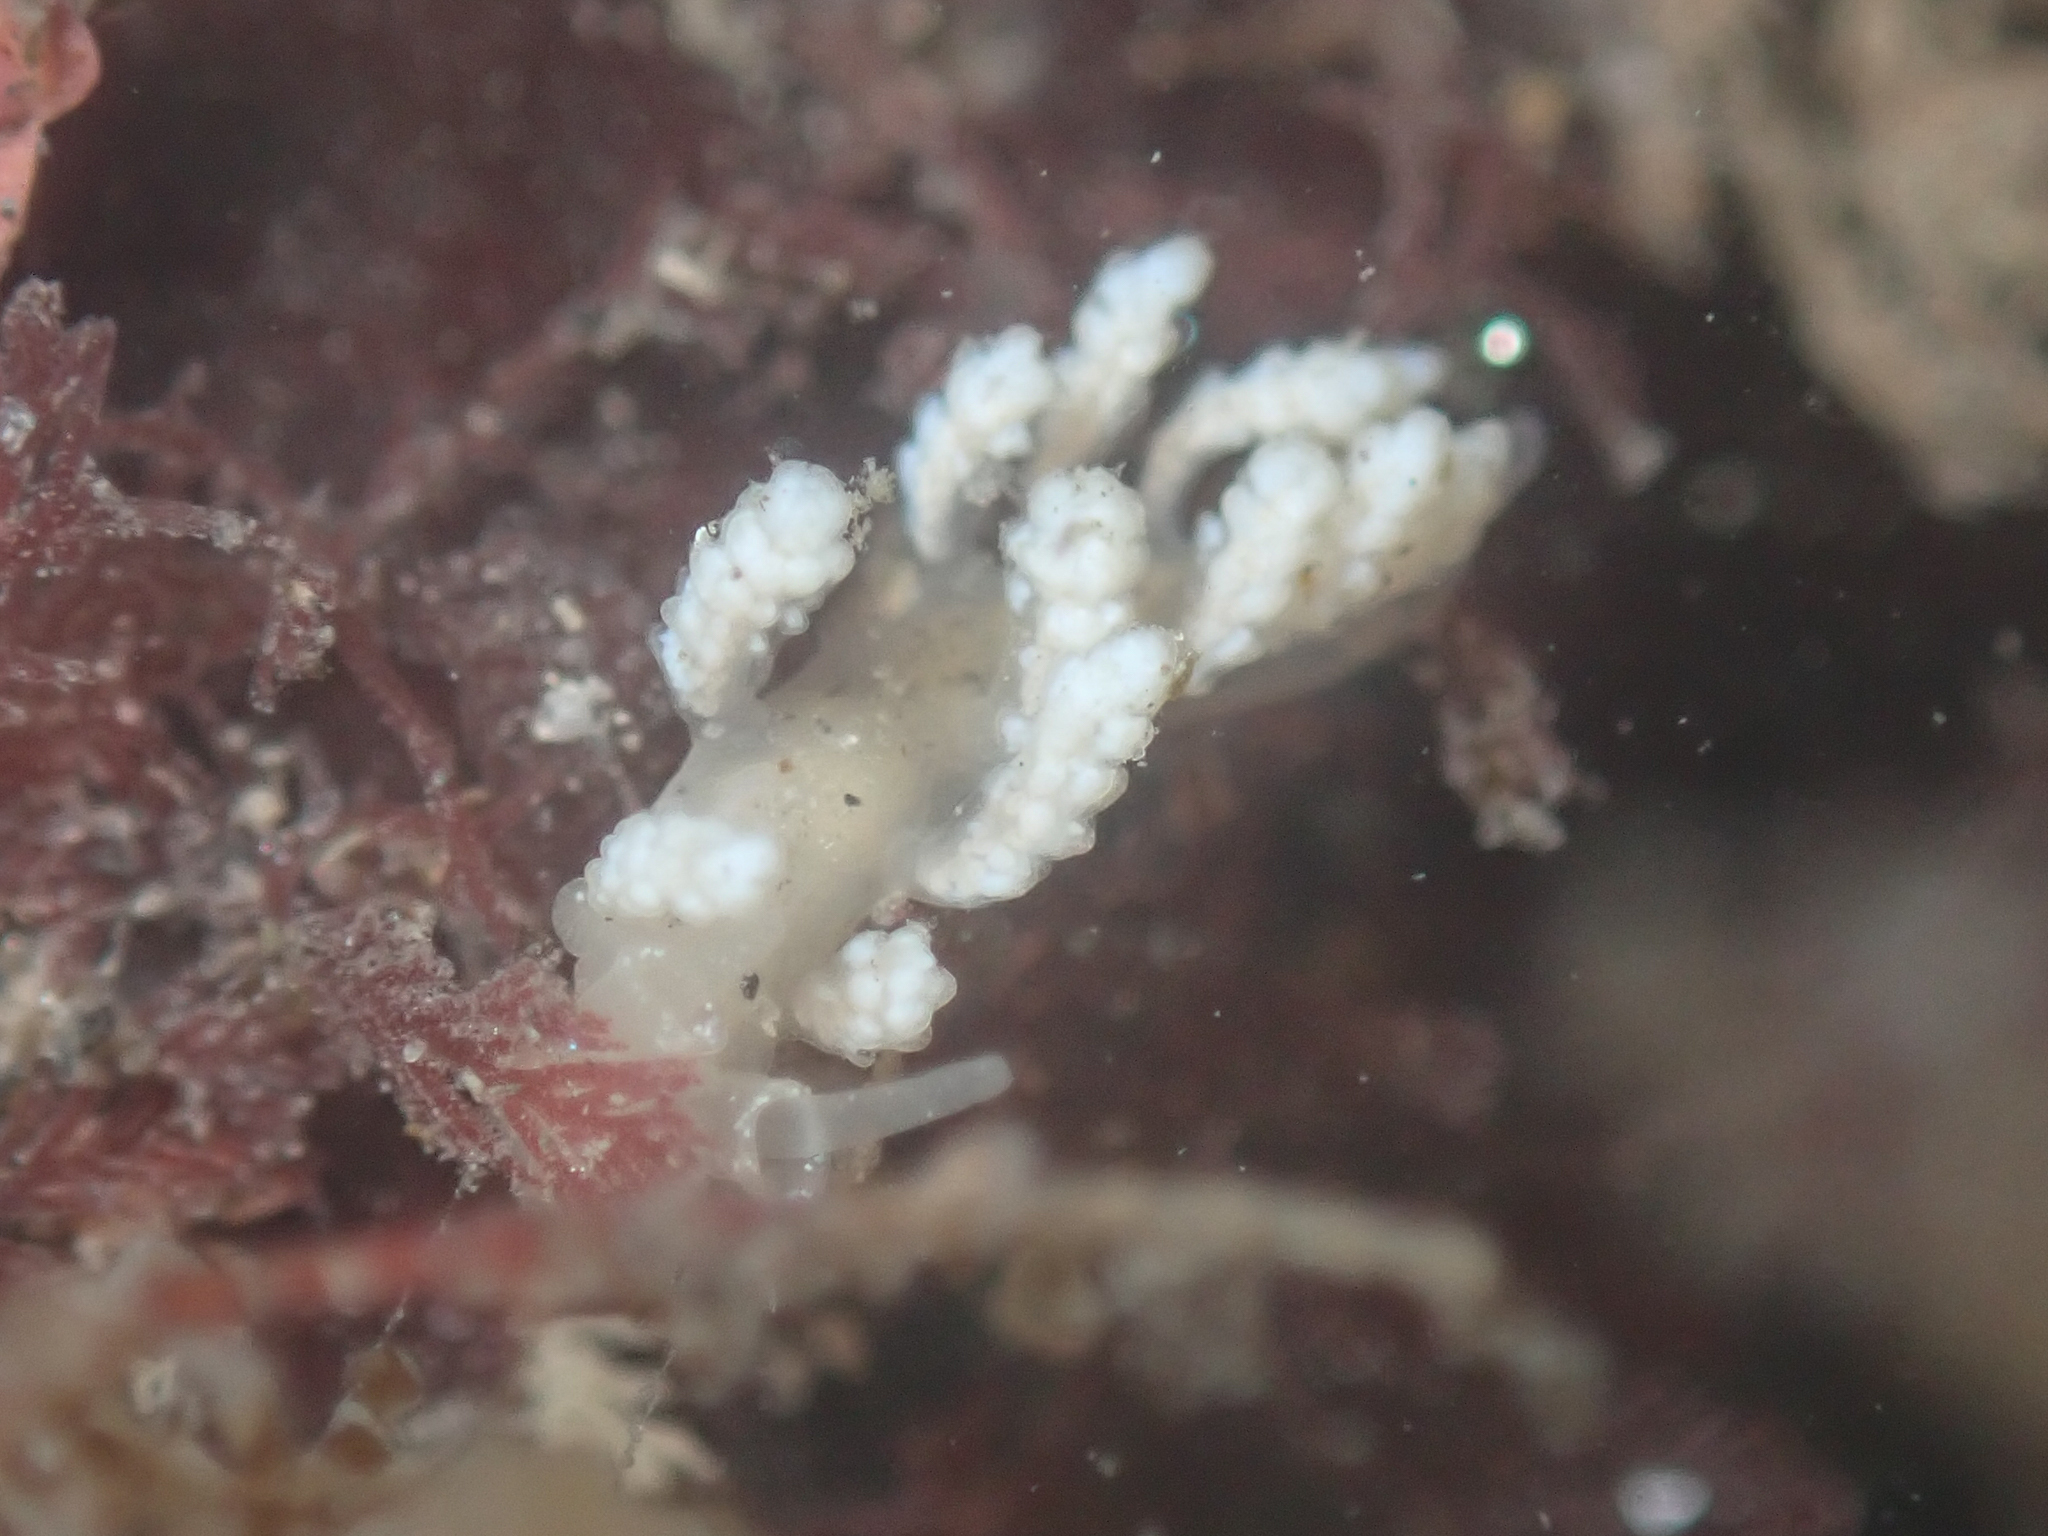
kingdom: Animalia
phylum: Mollusca
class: Gastropoda
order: Nudibranchia
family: Dotidae
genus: Doto
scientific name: Doto amyra
